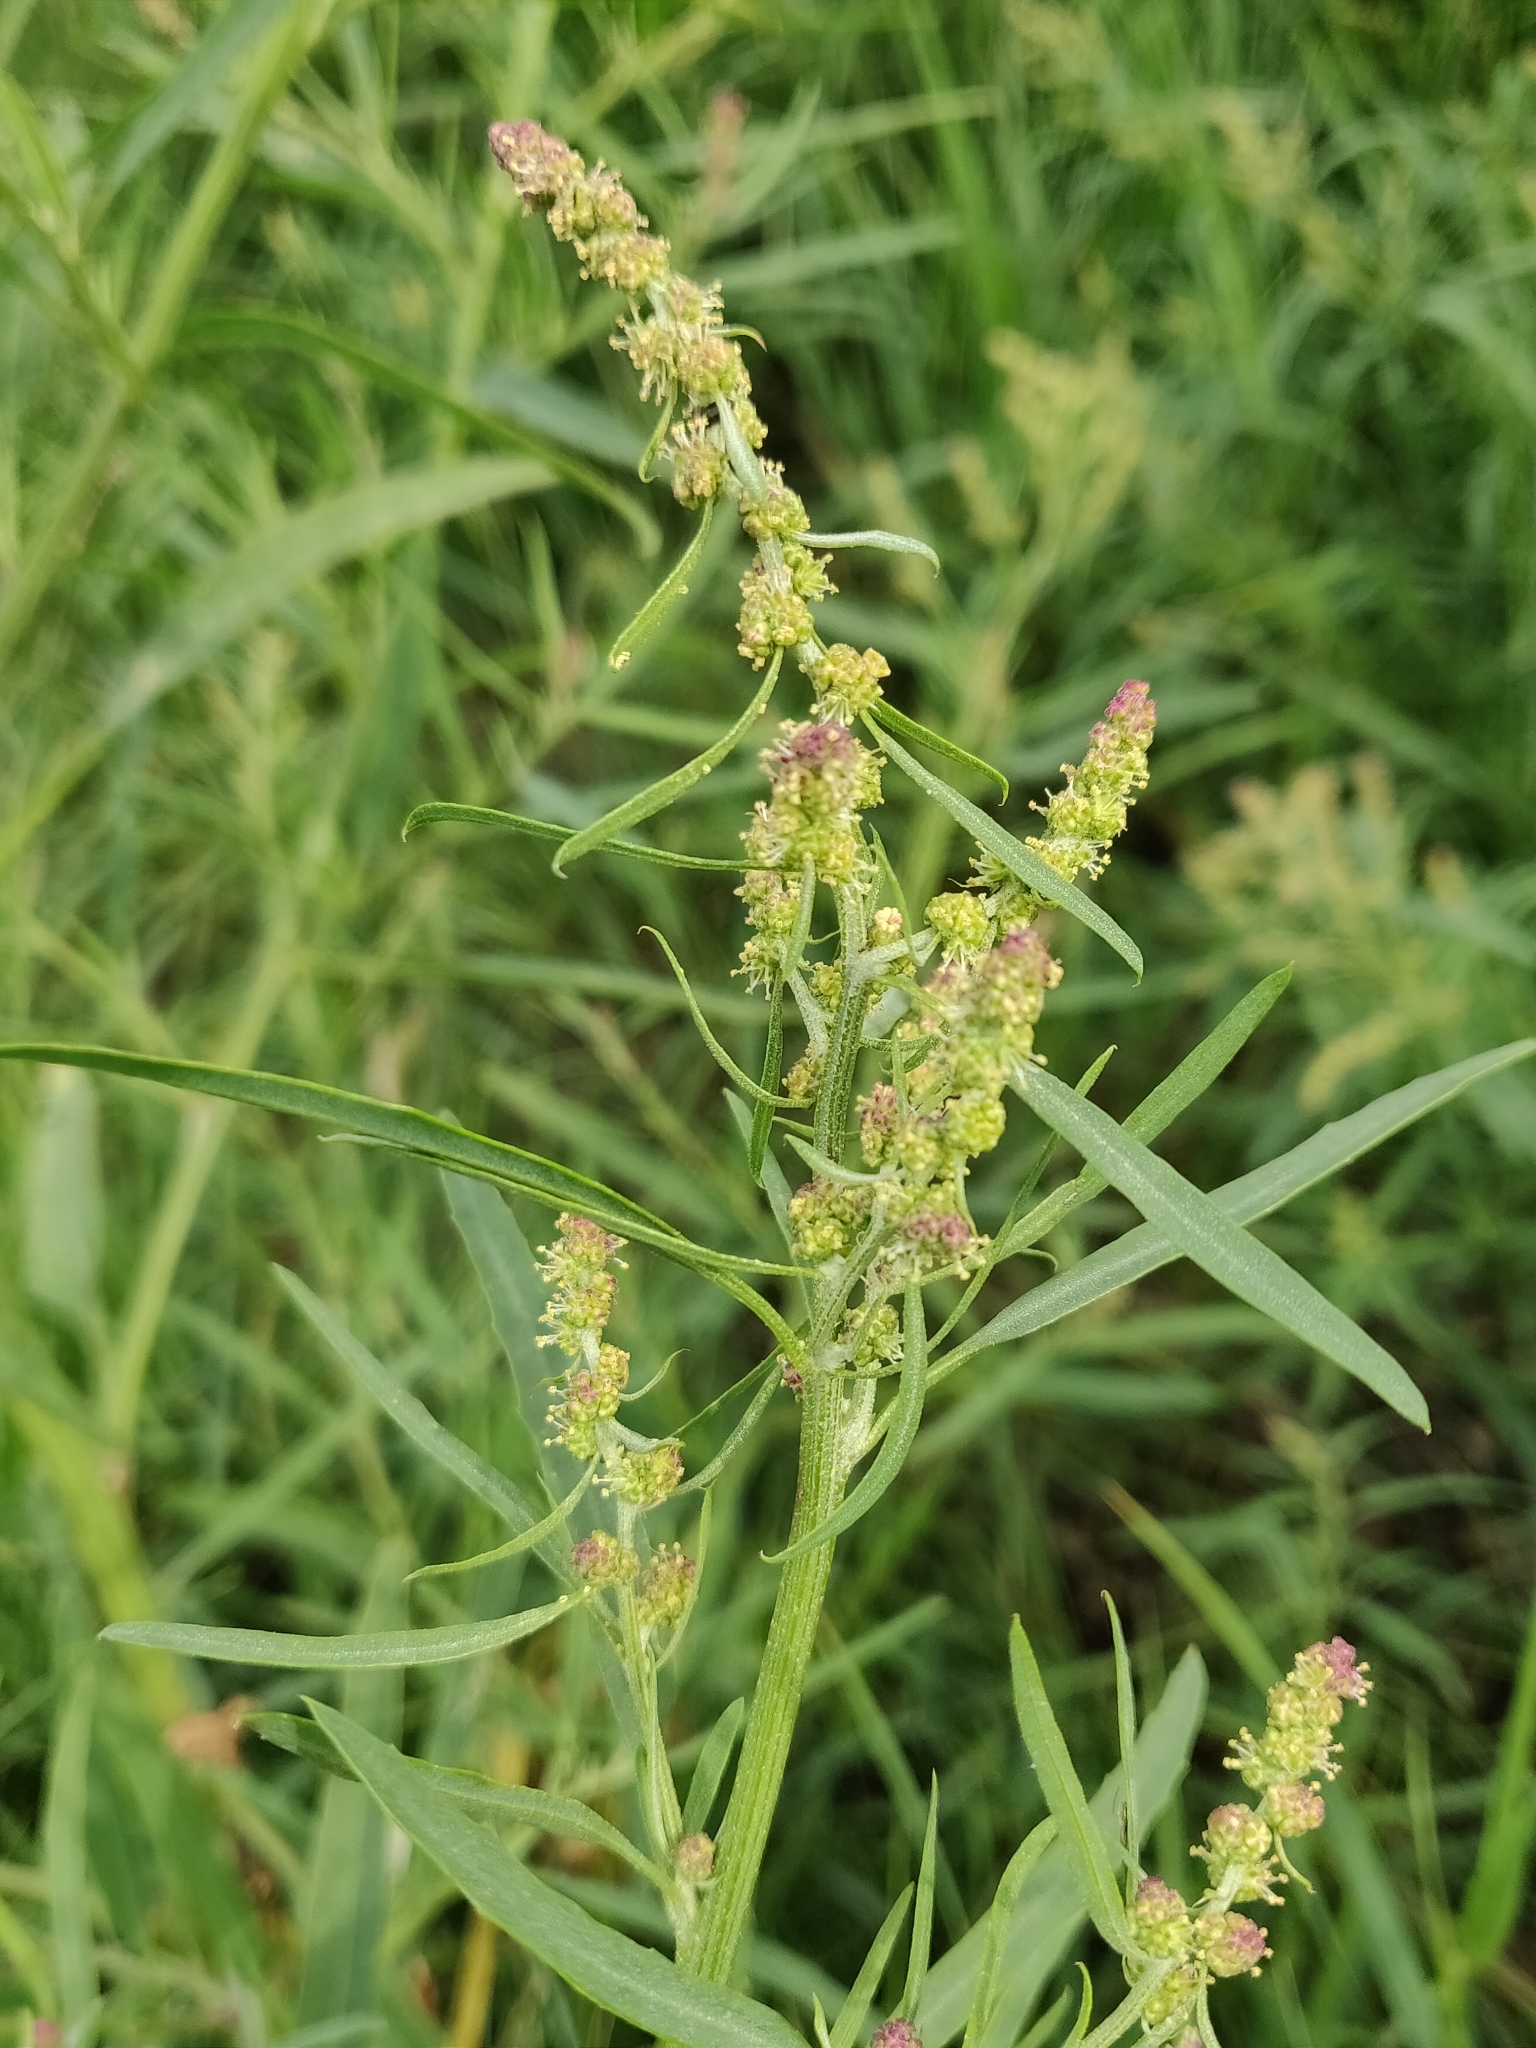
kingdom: Plantae
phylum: Tracheophyta
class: Magnoliopsida
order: Caryophyllales
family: Amaranthaceae
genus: Atriplex
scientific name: Atriplex littoralis
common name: Grass-leaved orache
